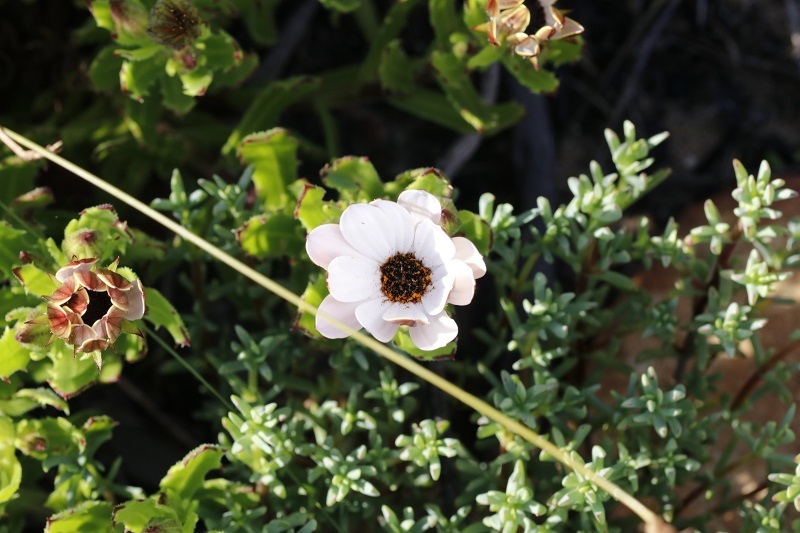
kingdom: Plantae
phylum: Tracheophyta
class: Magnoliopsida
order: Asterales
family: Asteraceae
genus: Dimorphotheca
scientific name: Dimorphotheca walliana
